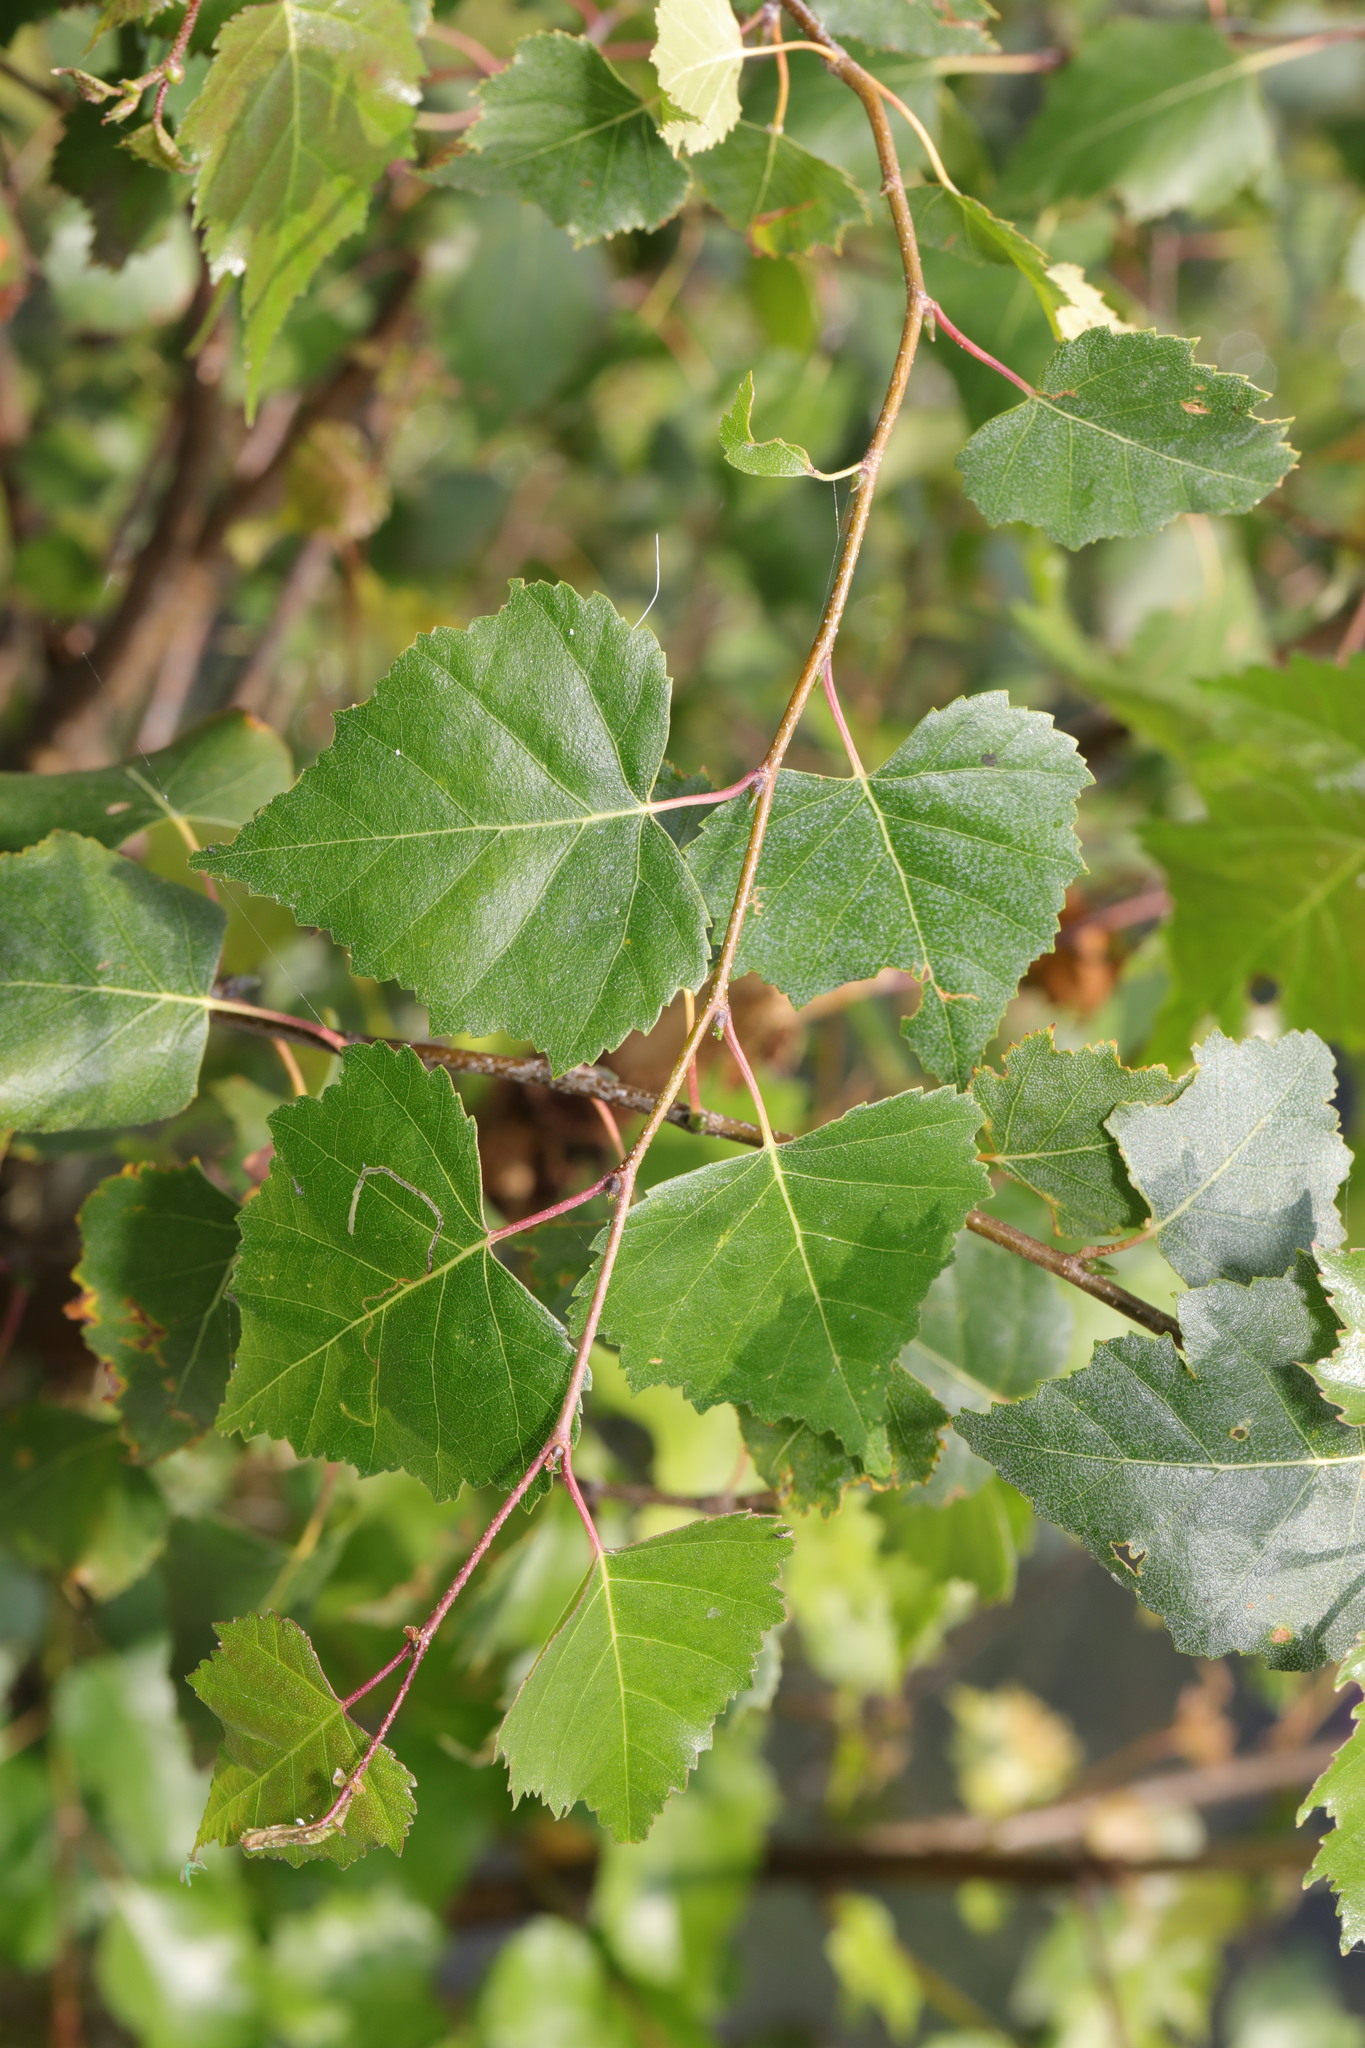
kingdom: Plantae
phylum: Tracheophyta
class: Magnoliopsida
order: Fagales
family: Betulaceae
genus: Betula
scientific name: Betula pendula
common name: Silver birch
